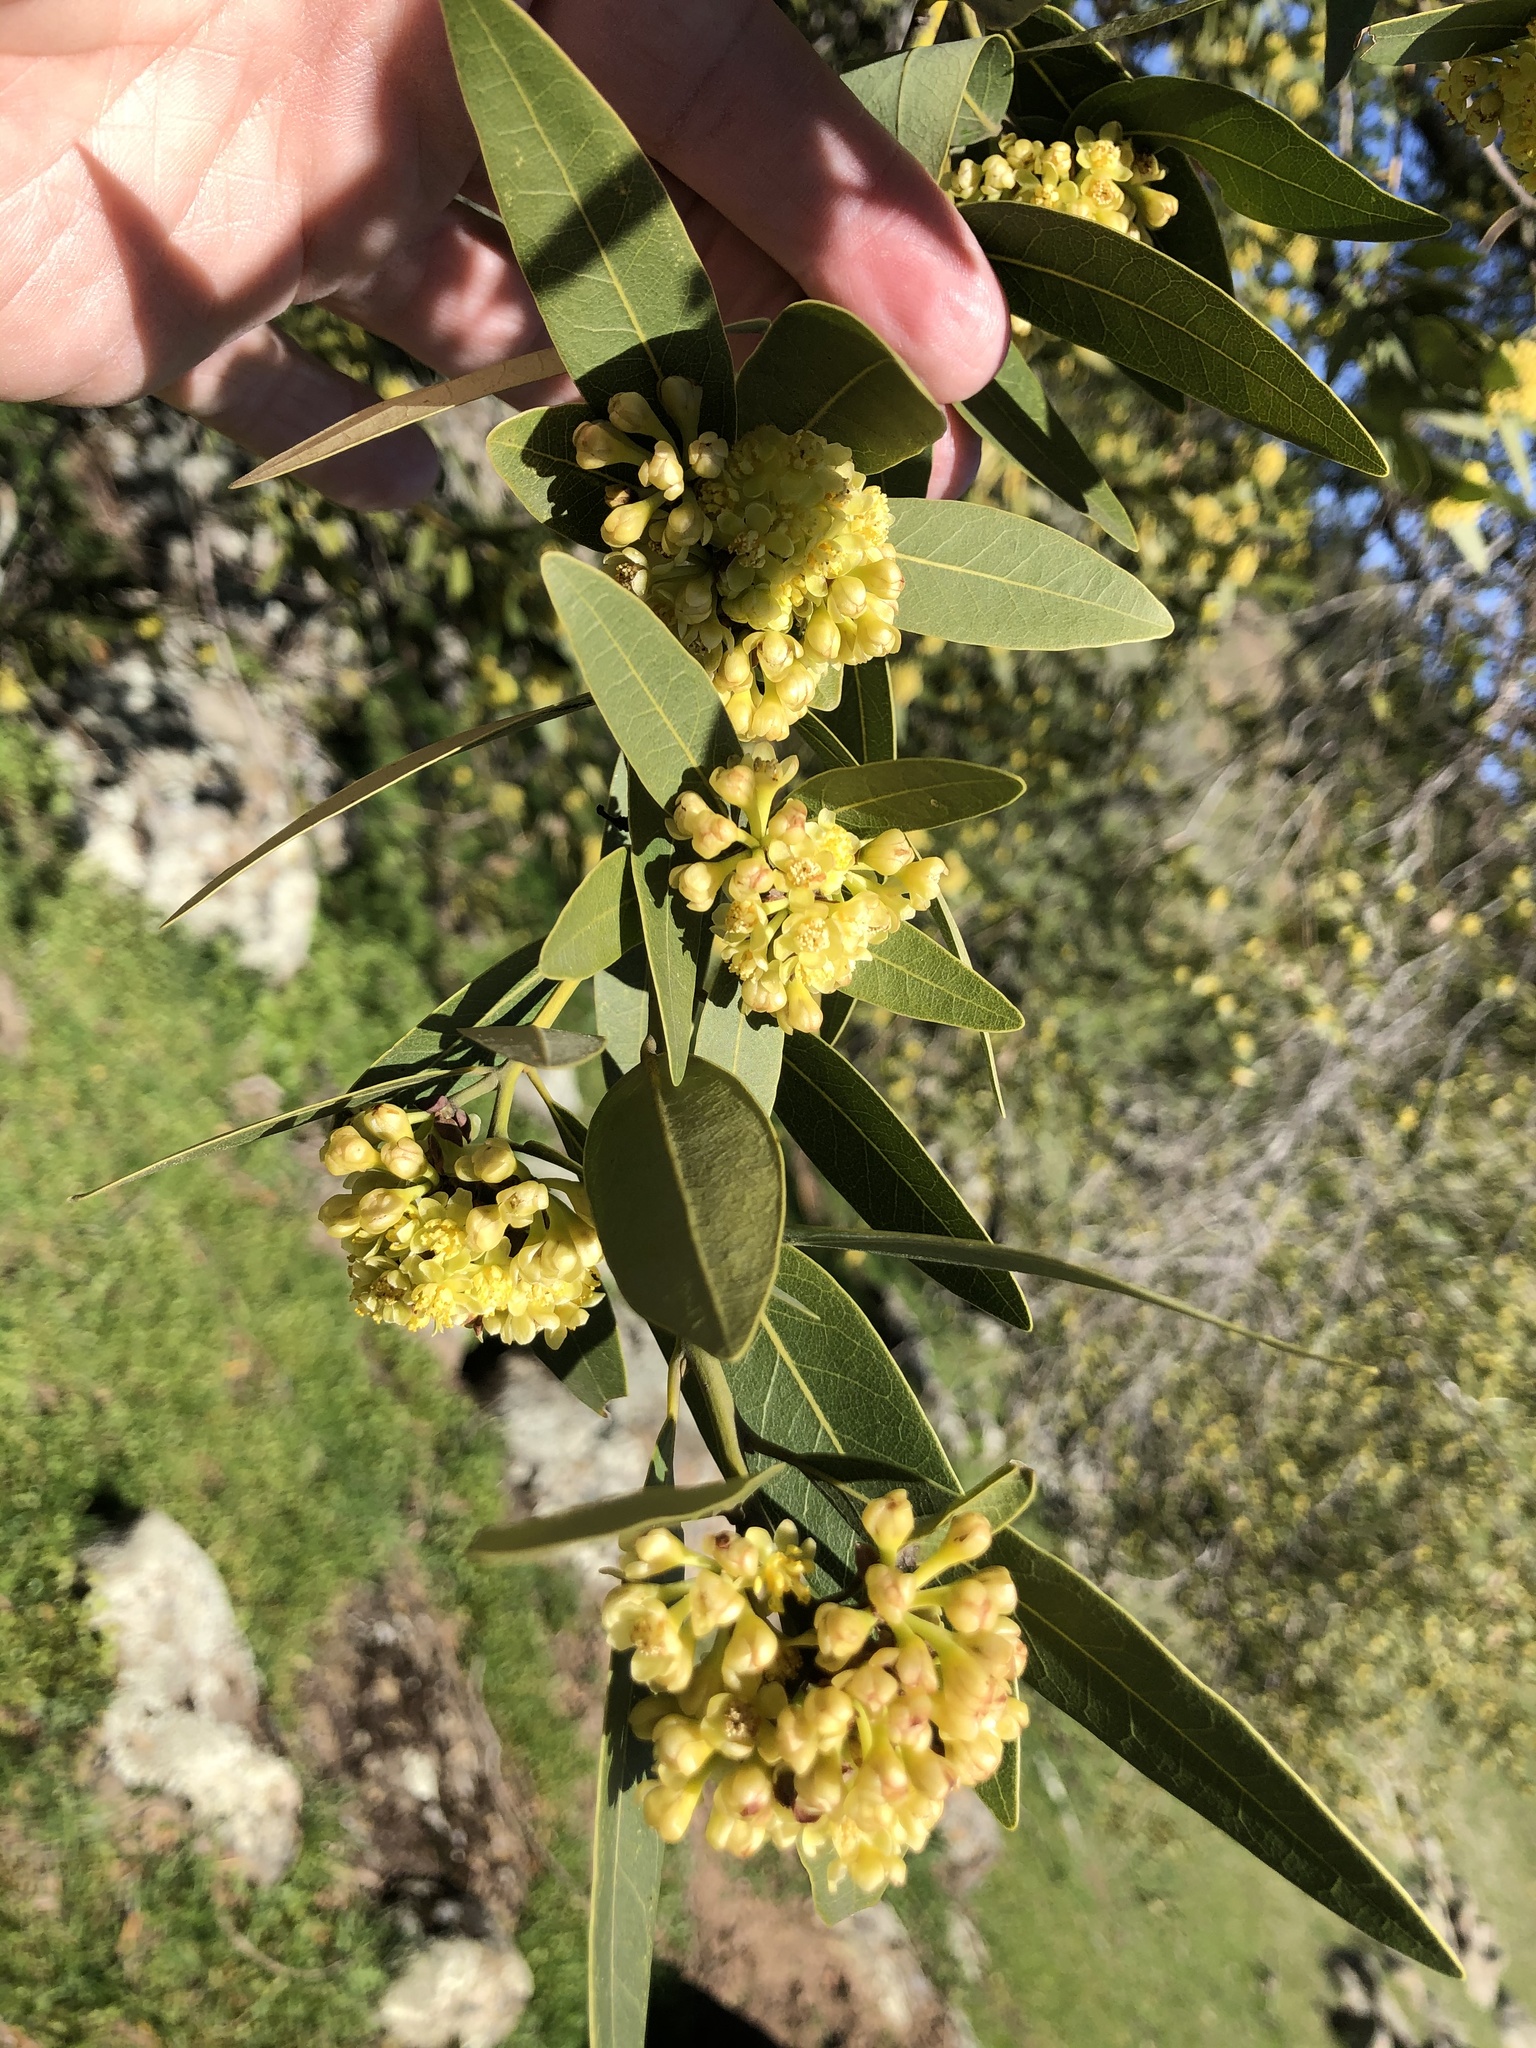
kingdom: Plantae
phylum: Tracheophyta
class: Magnoliopsida
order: Laurales
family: Lauraceae
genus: Umbellularia
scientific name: Umbellularia californica
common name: California bay
